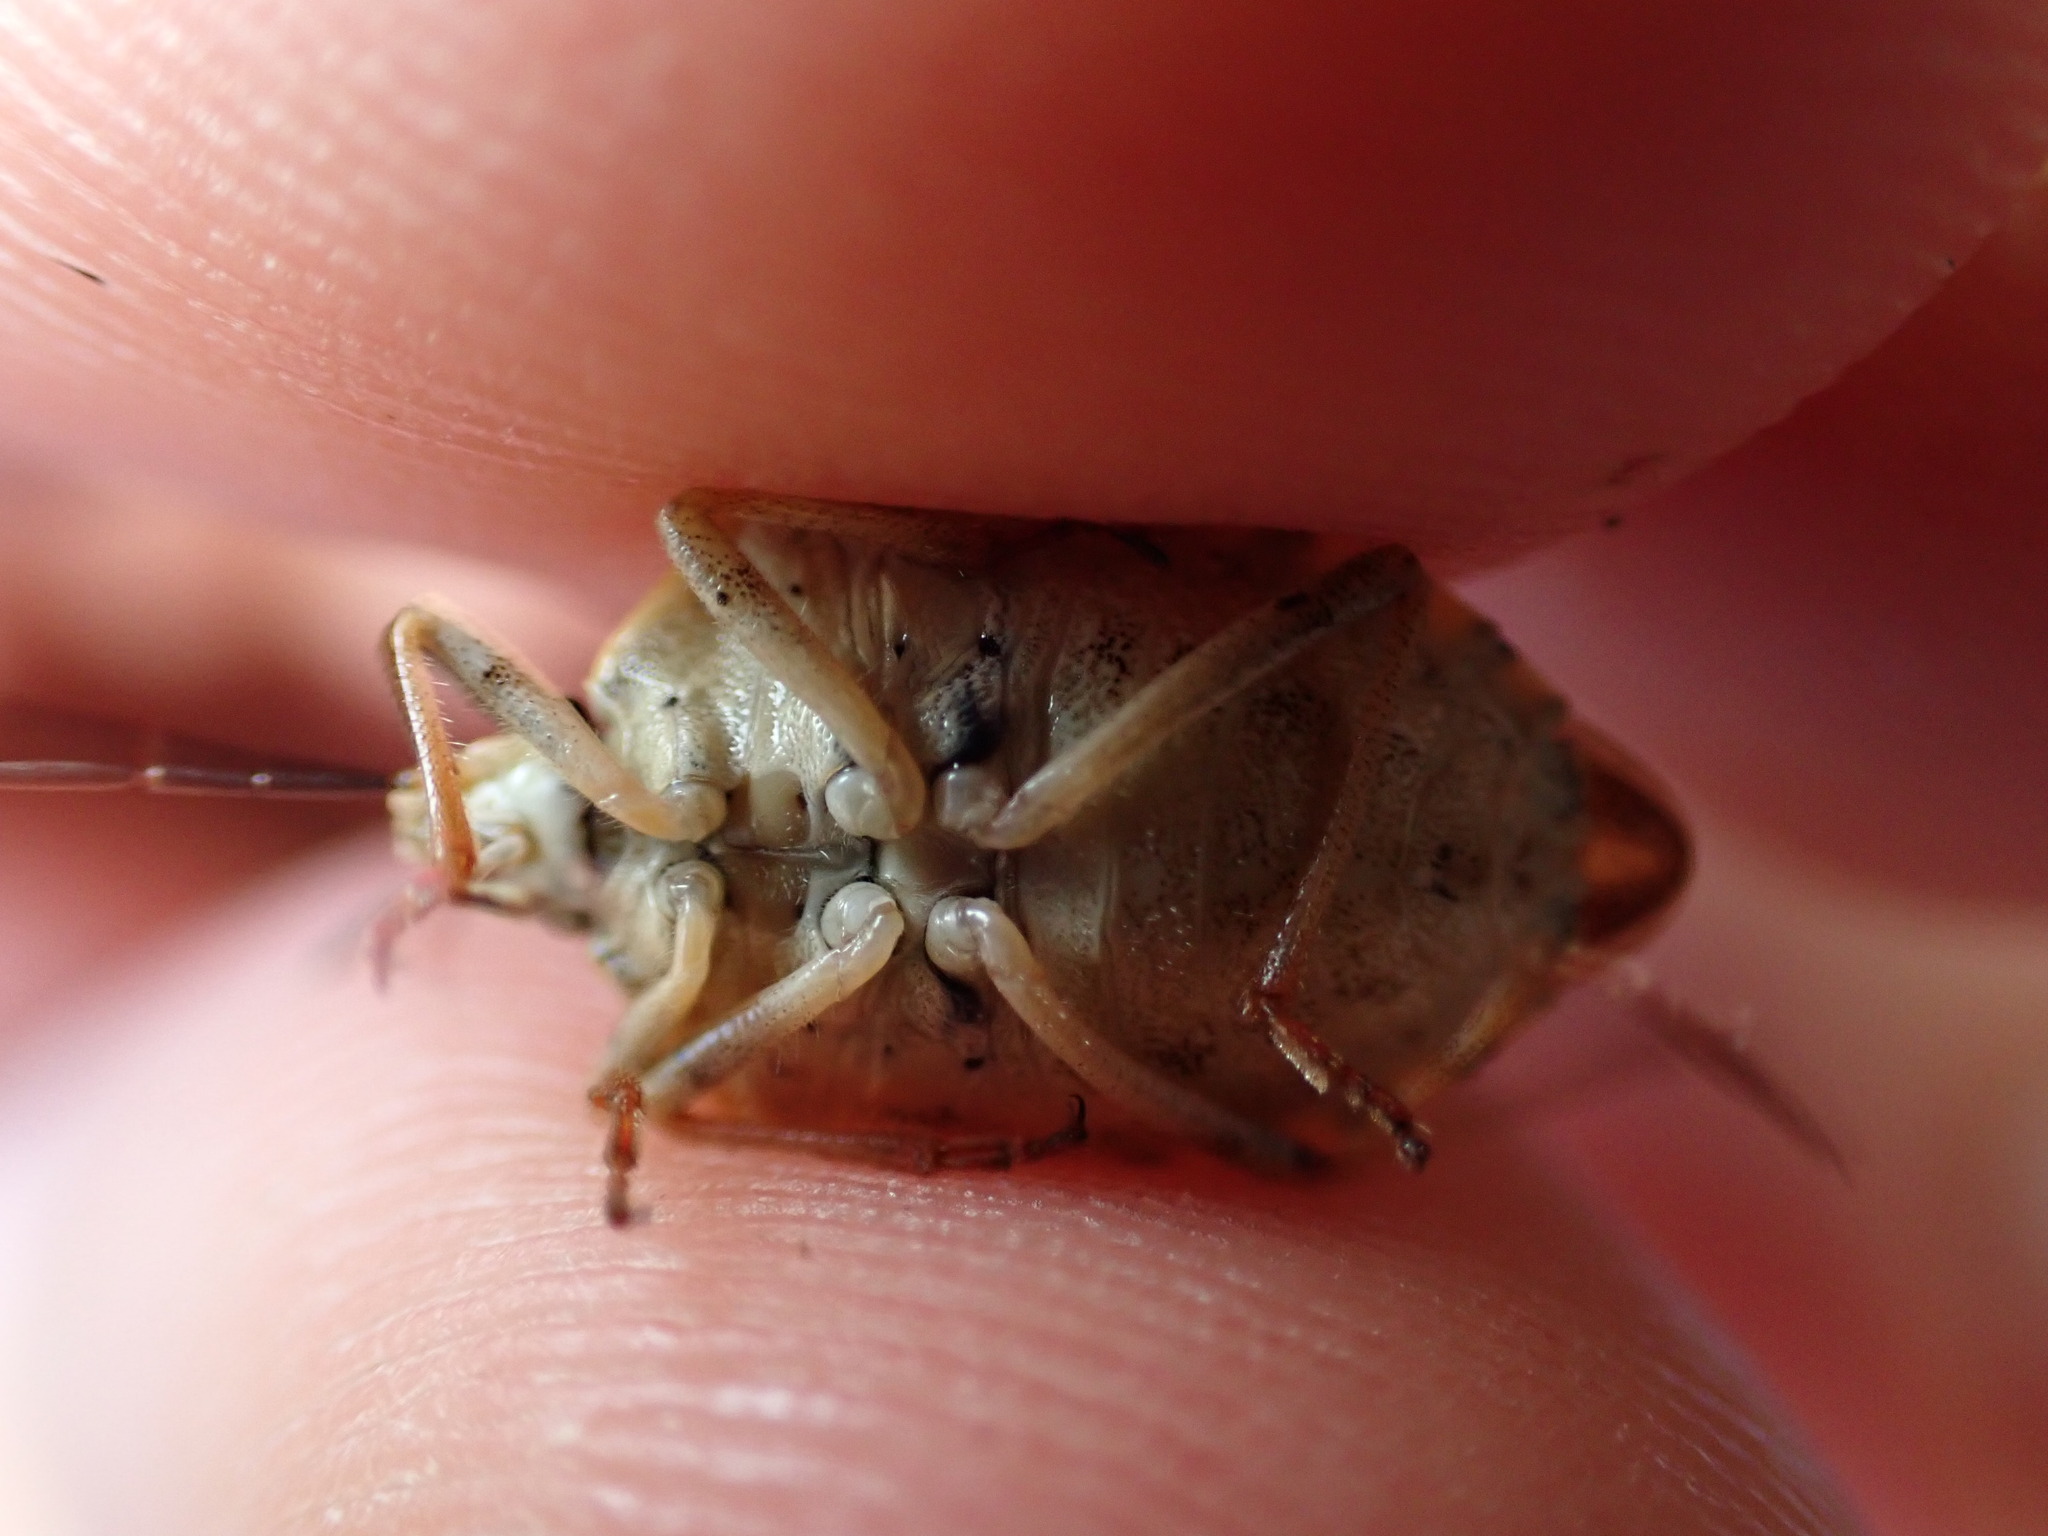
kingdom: Animalia
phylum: Arthropoda
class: Insecta
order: Hemiptera
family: Pentatomidae
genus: Carpocoris
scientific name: Carpocoris purpureipennis
